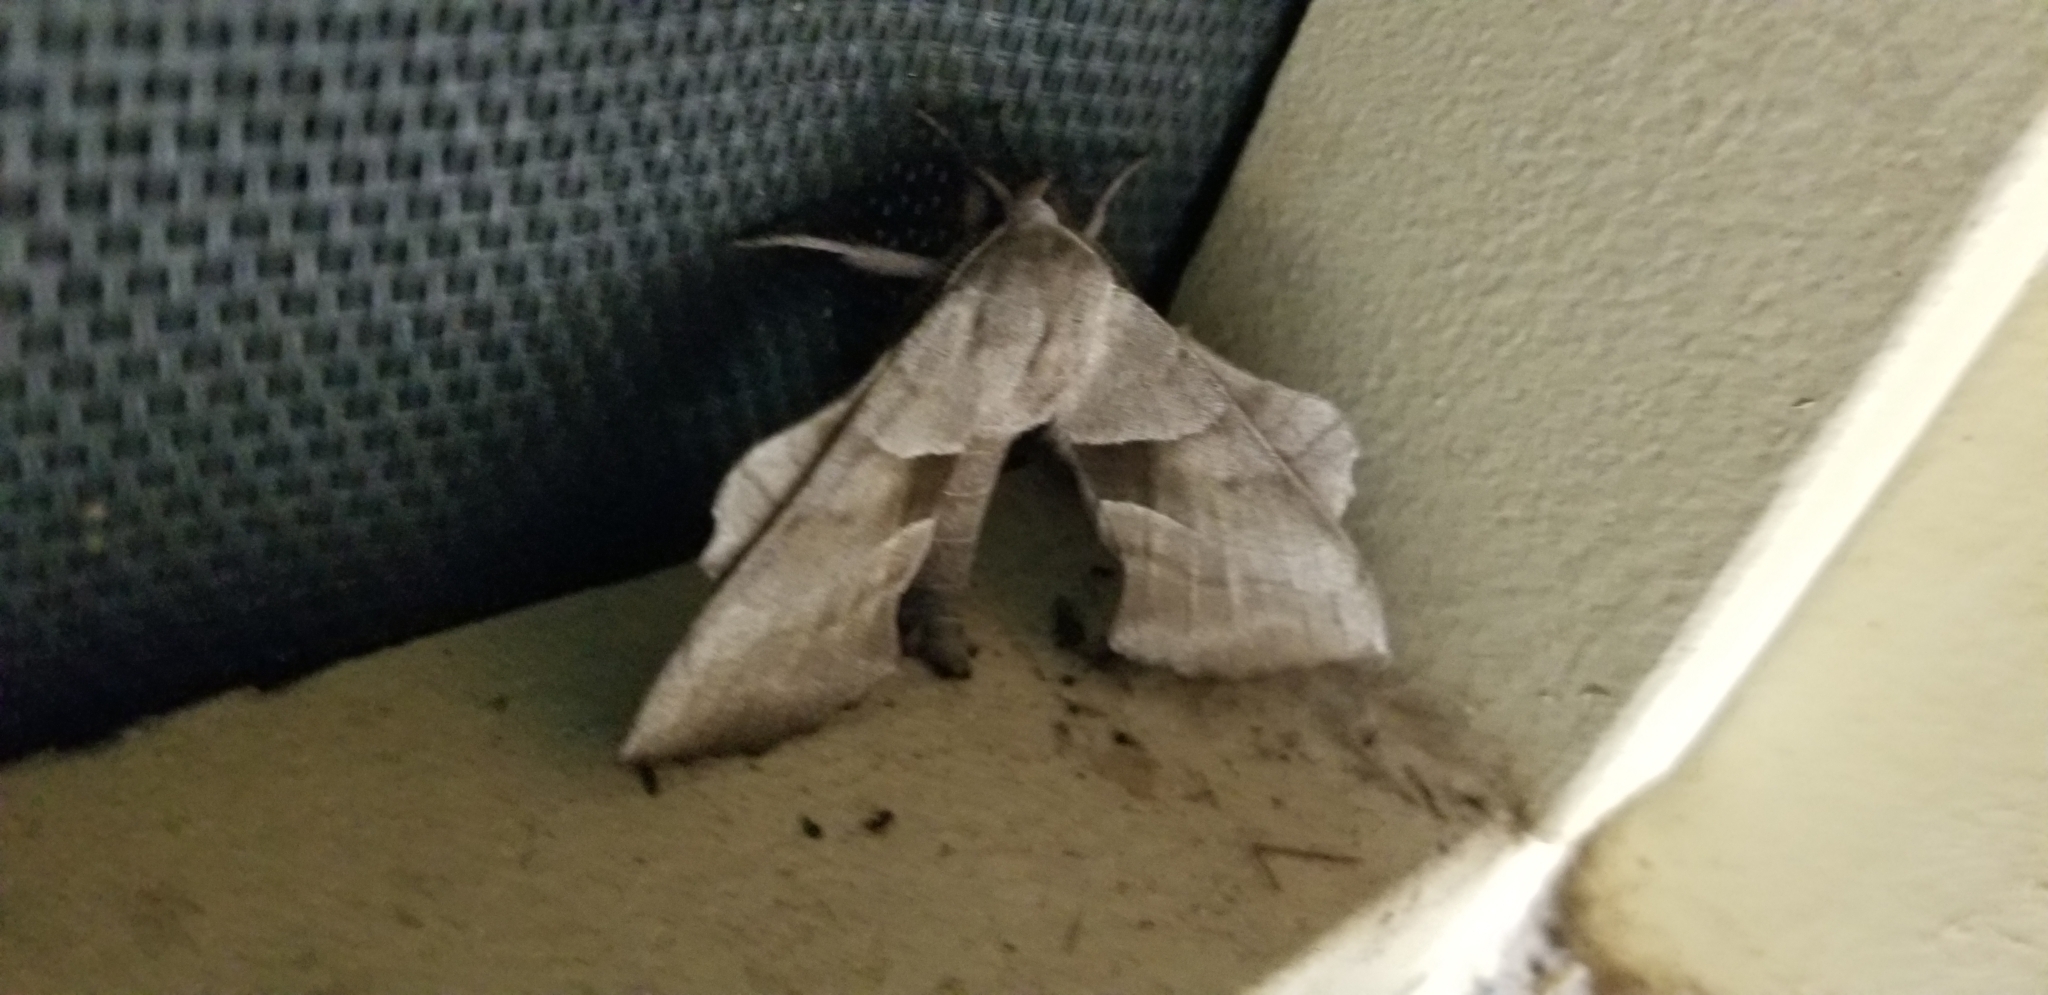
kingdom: Animalia
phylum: Arthropoda
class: Insecta
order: Lepidoptera
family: Sphingidae
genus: Amorpha
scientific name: Amorpha juglandis
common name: Walnut sphinx
